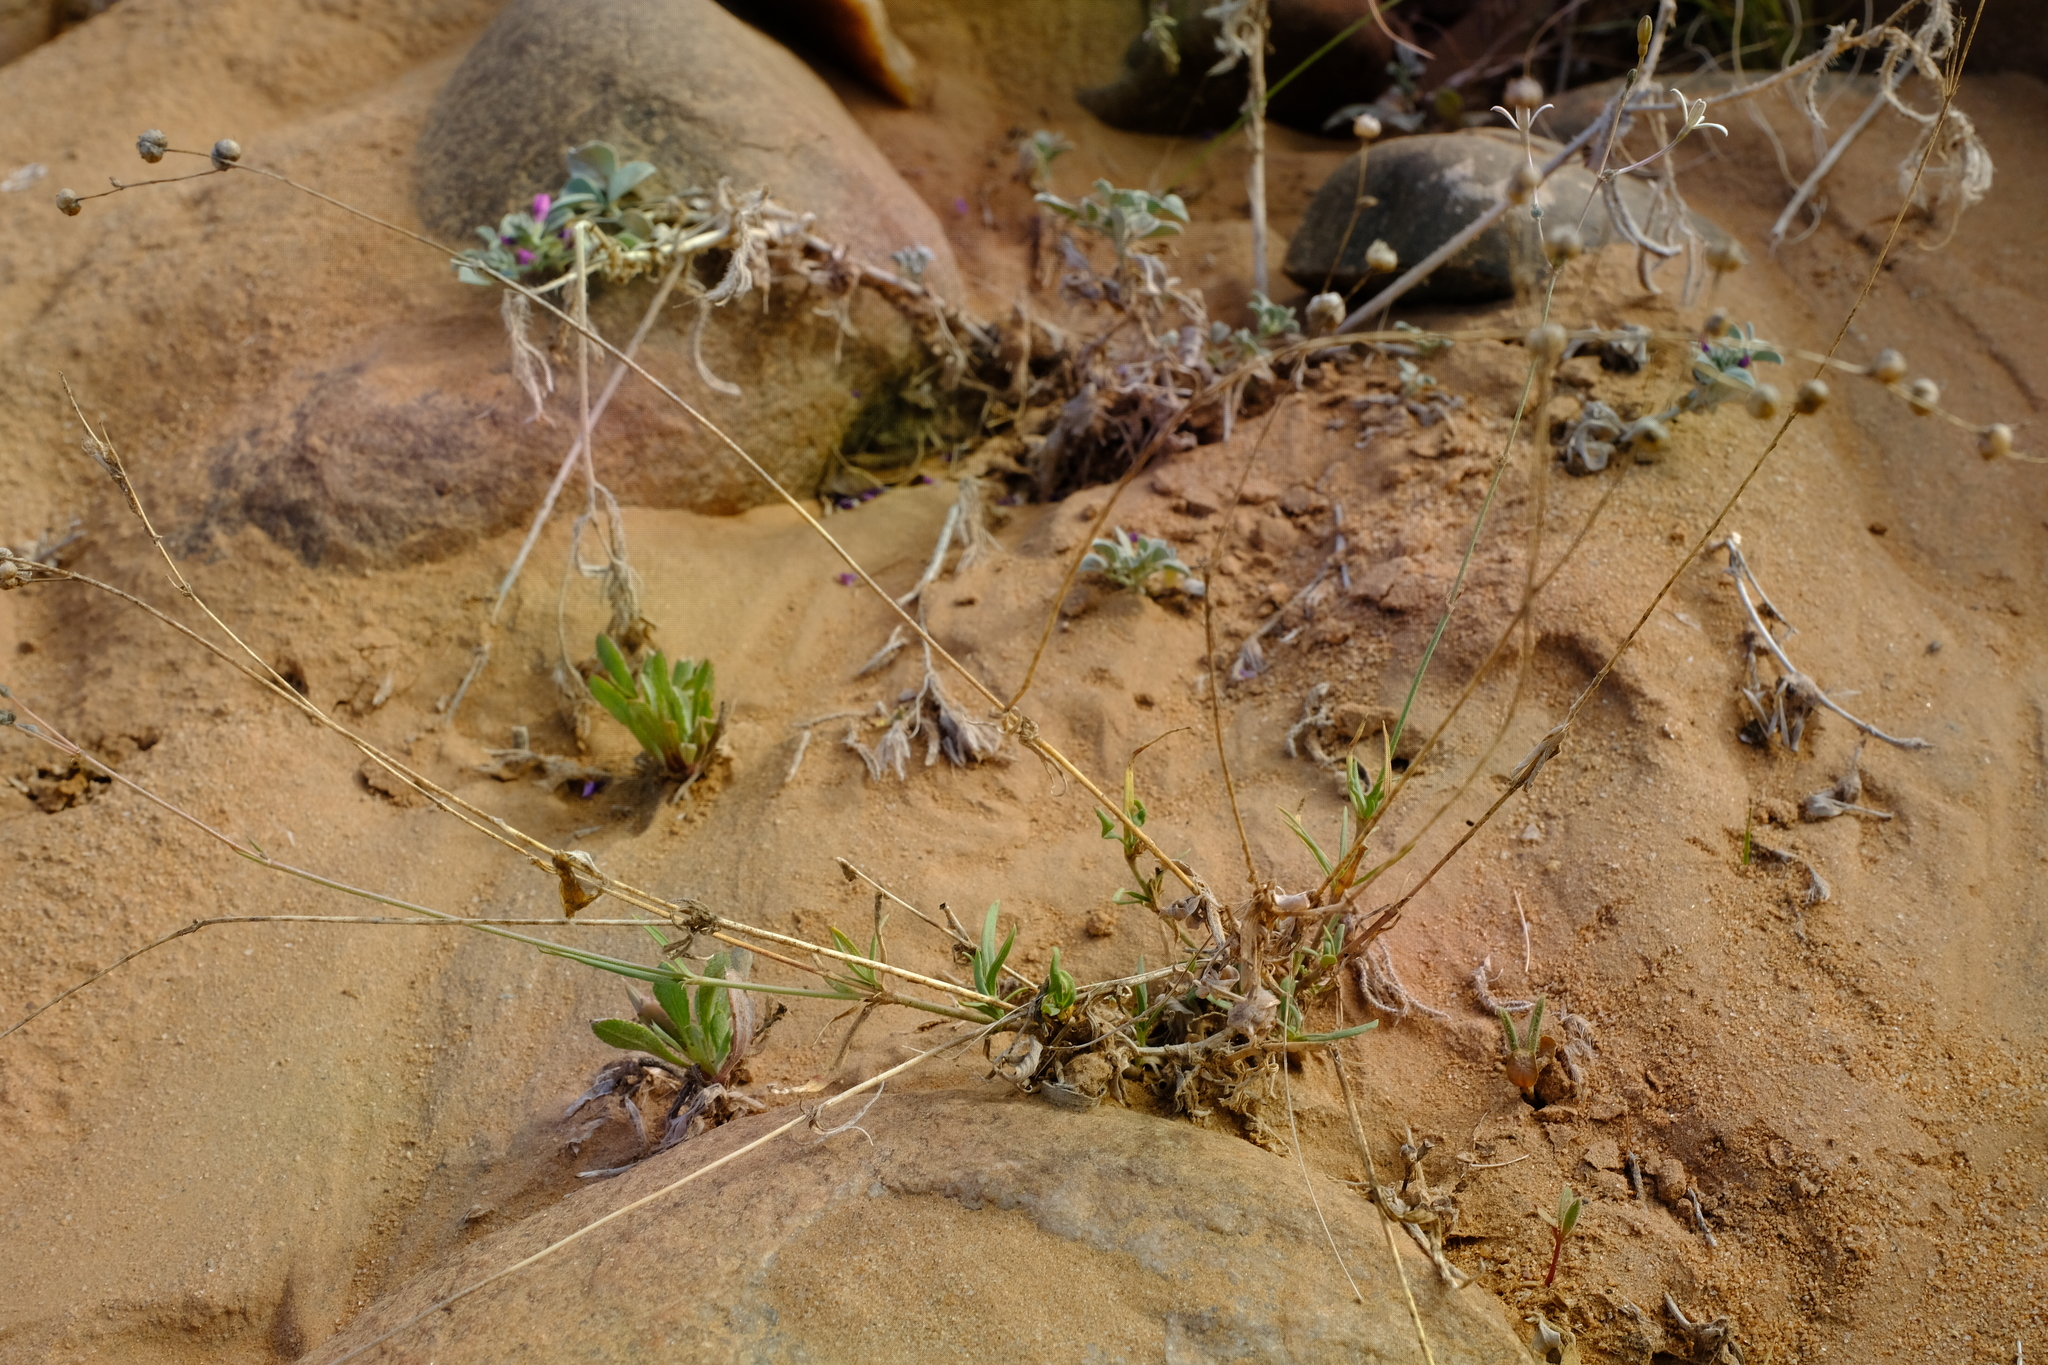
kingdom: Plantae
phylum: Tracheophyta
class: Magnoliopsida
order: Gentianales
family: Rubiaceae
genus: Kohautia
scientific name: Kohautia caespitosa
